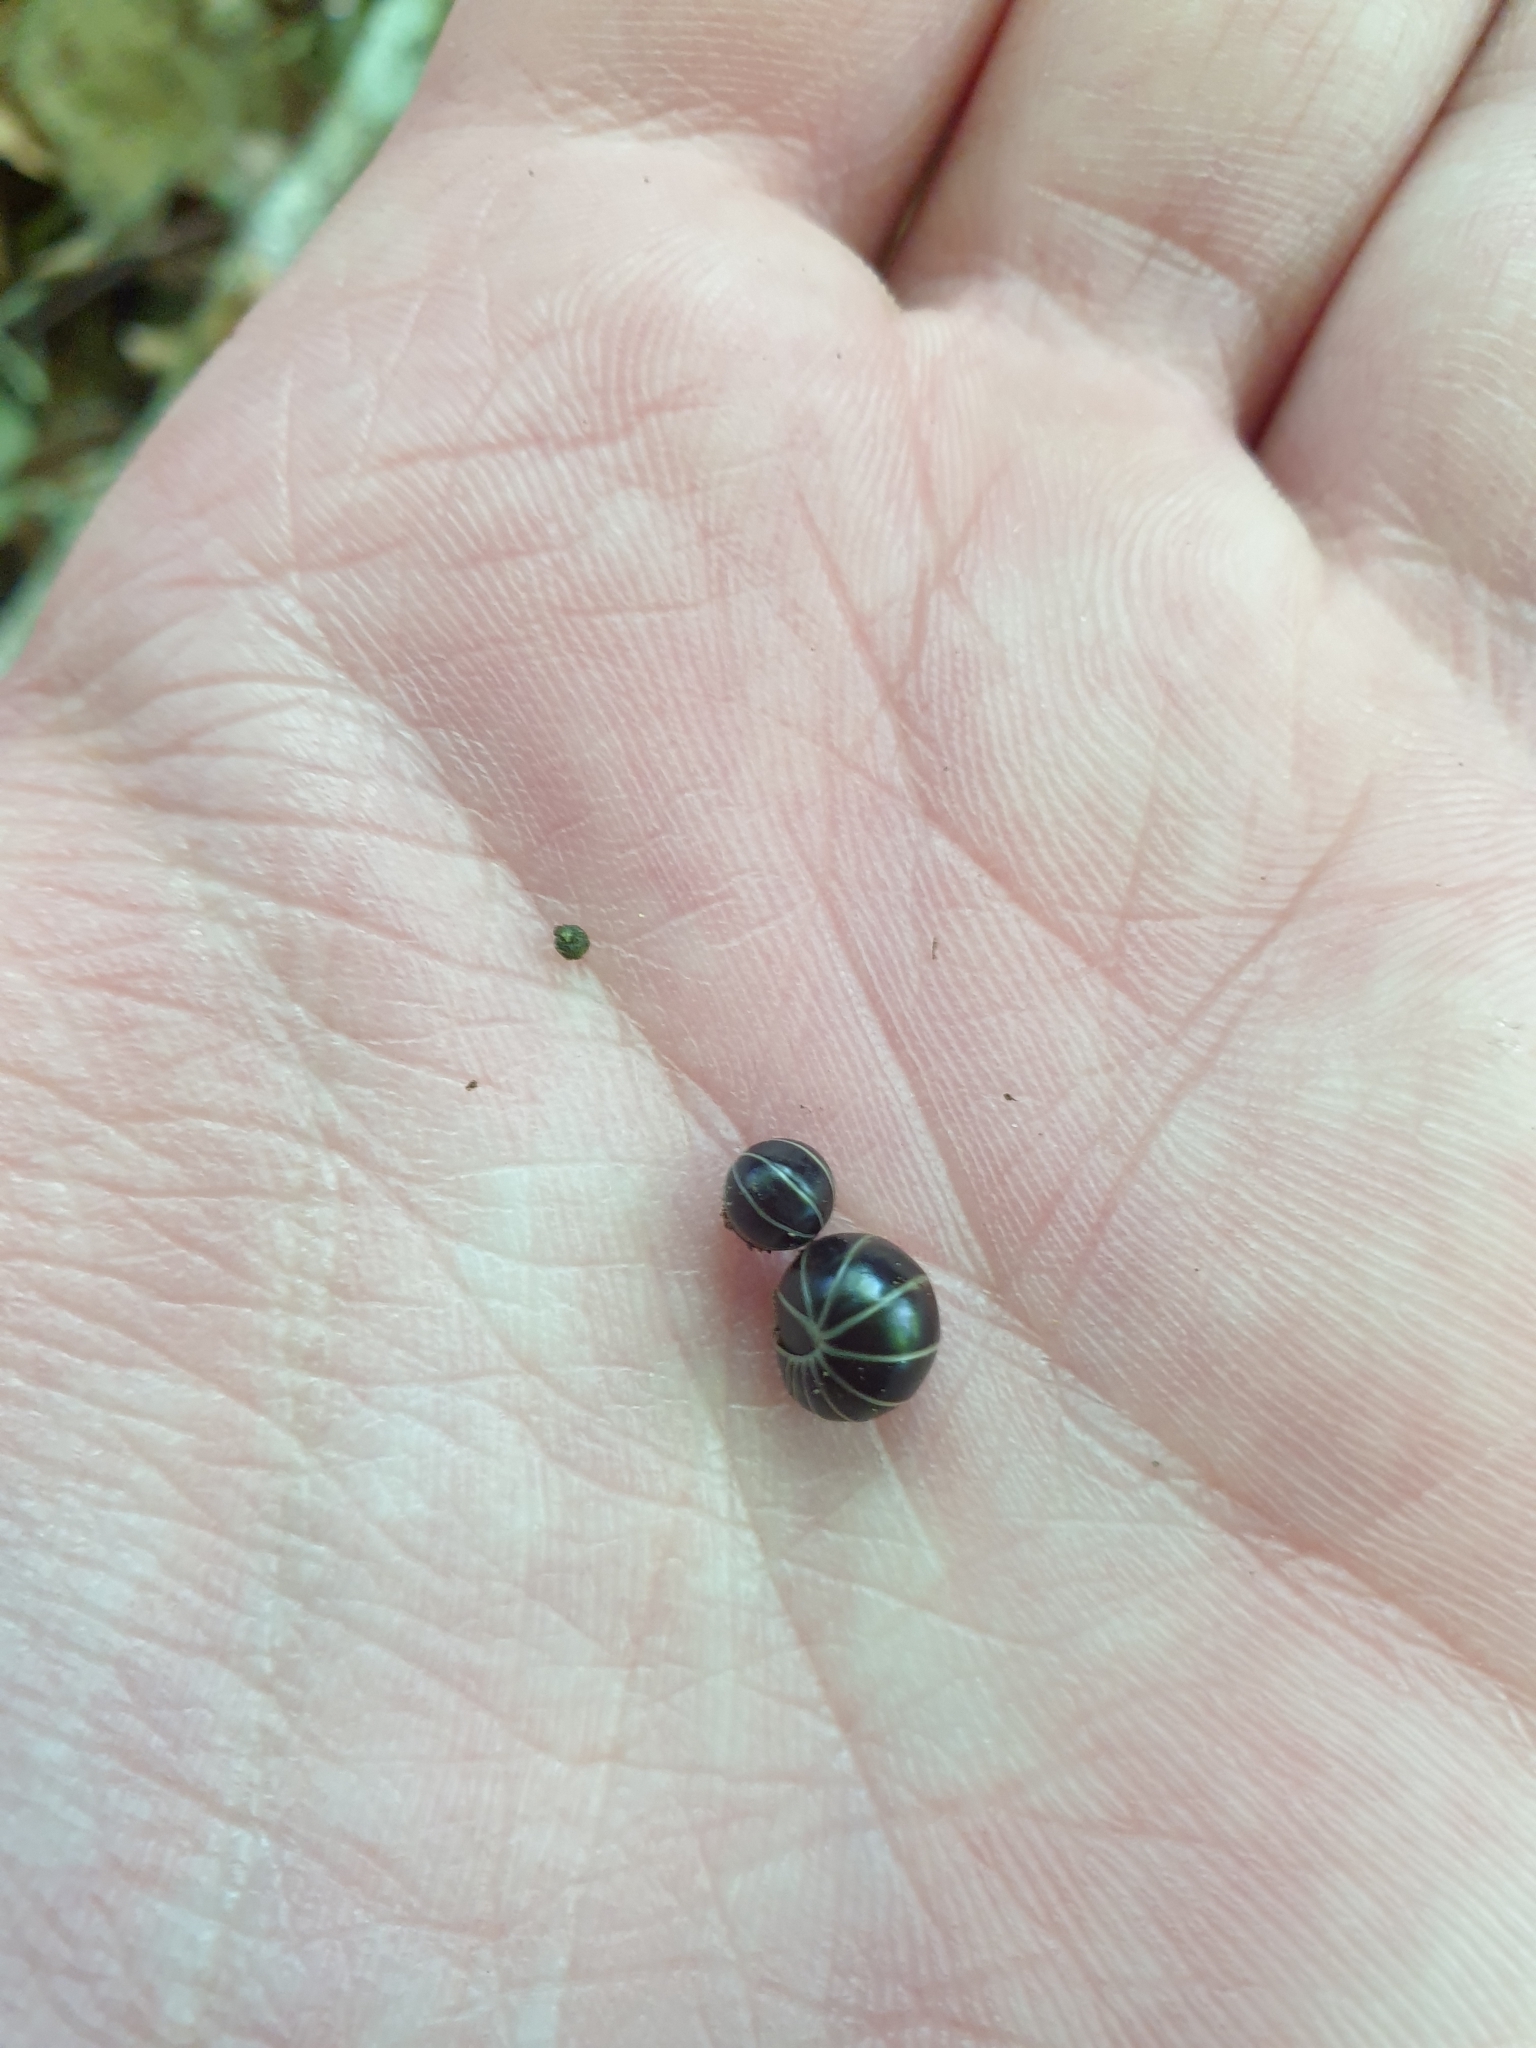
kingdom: Animalia
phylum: Arthropoda
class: Diplopoda
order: Glomerida
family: Glomeridae
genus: Glomeris
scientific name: Glomeris marginata
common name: Bordered pill millipede
